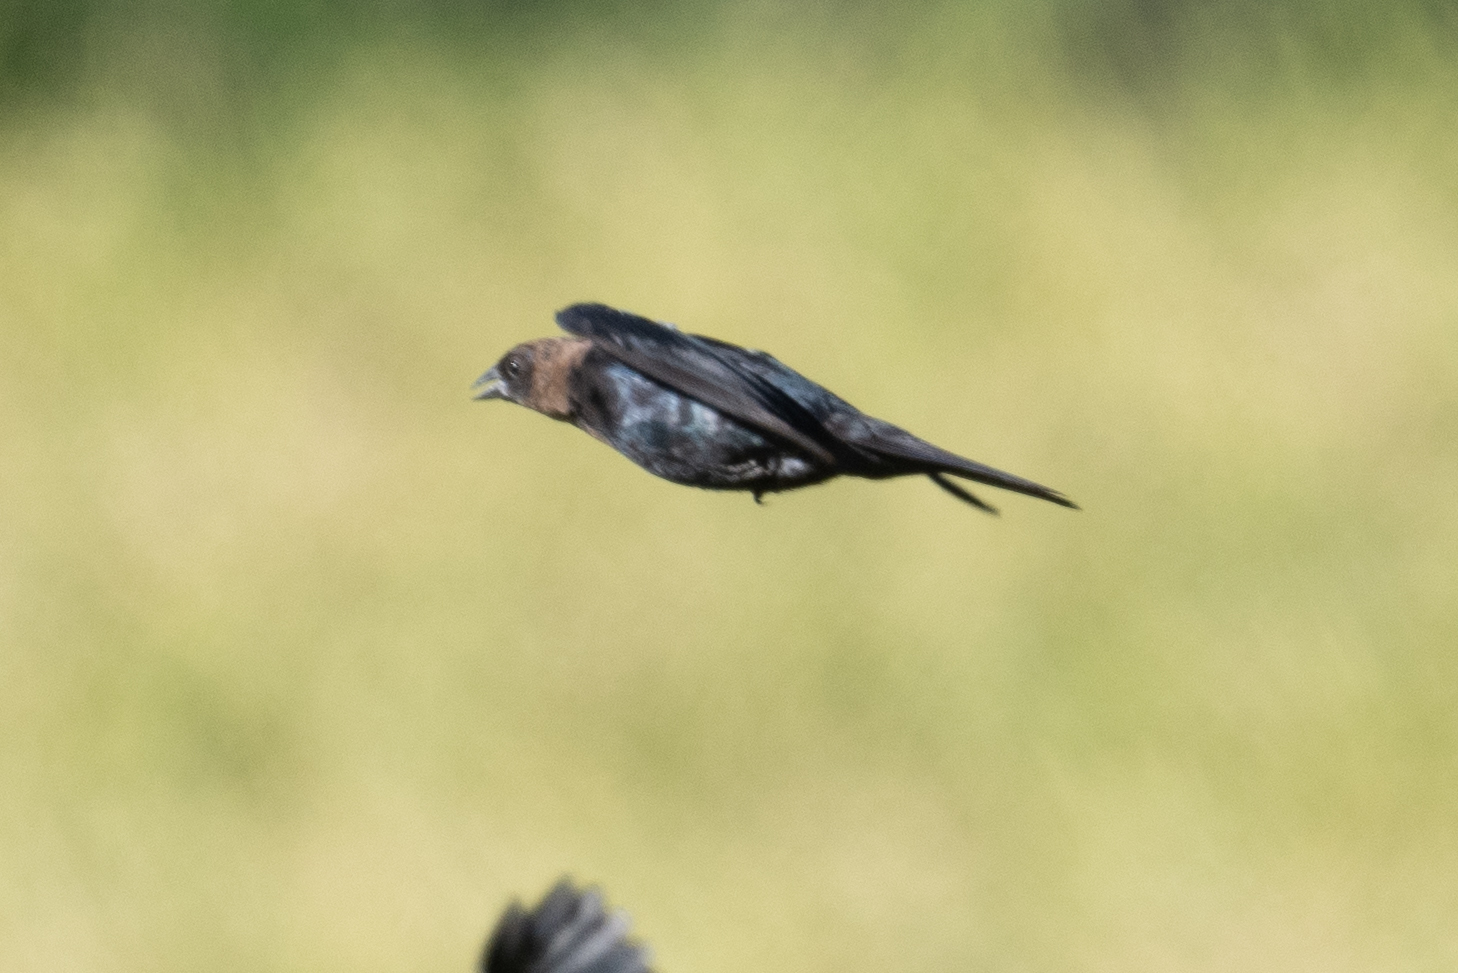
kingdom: Animalia
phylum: Chordata
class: Aves
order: Passeriformes
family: Icteridae
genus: Molothrus
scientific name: Molothrus ater
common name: Brown-headed cowbird
